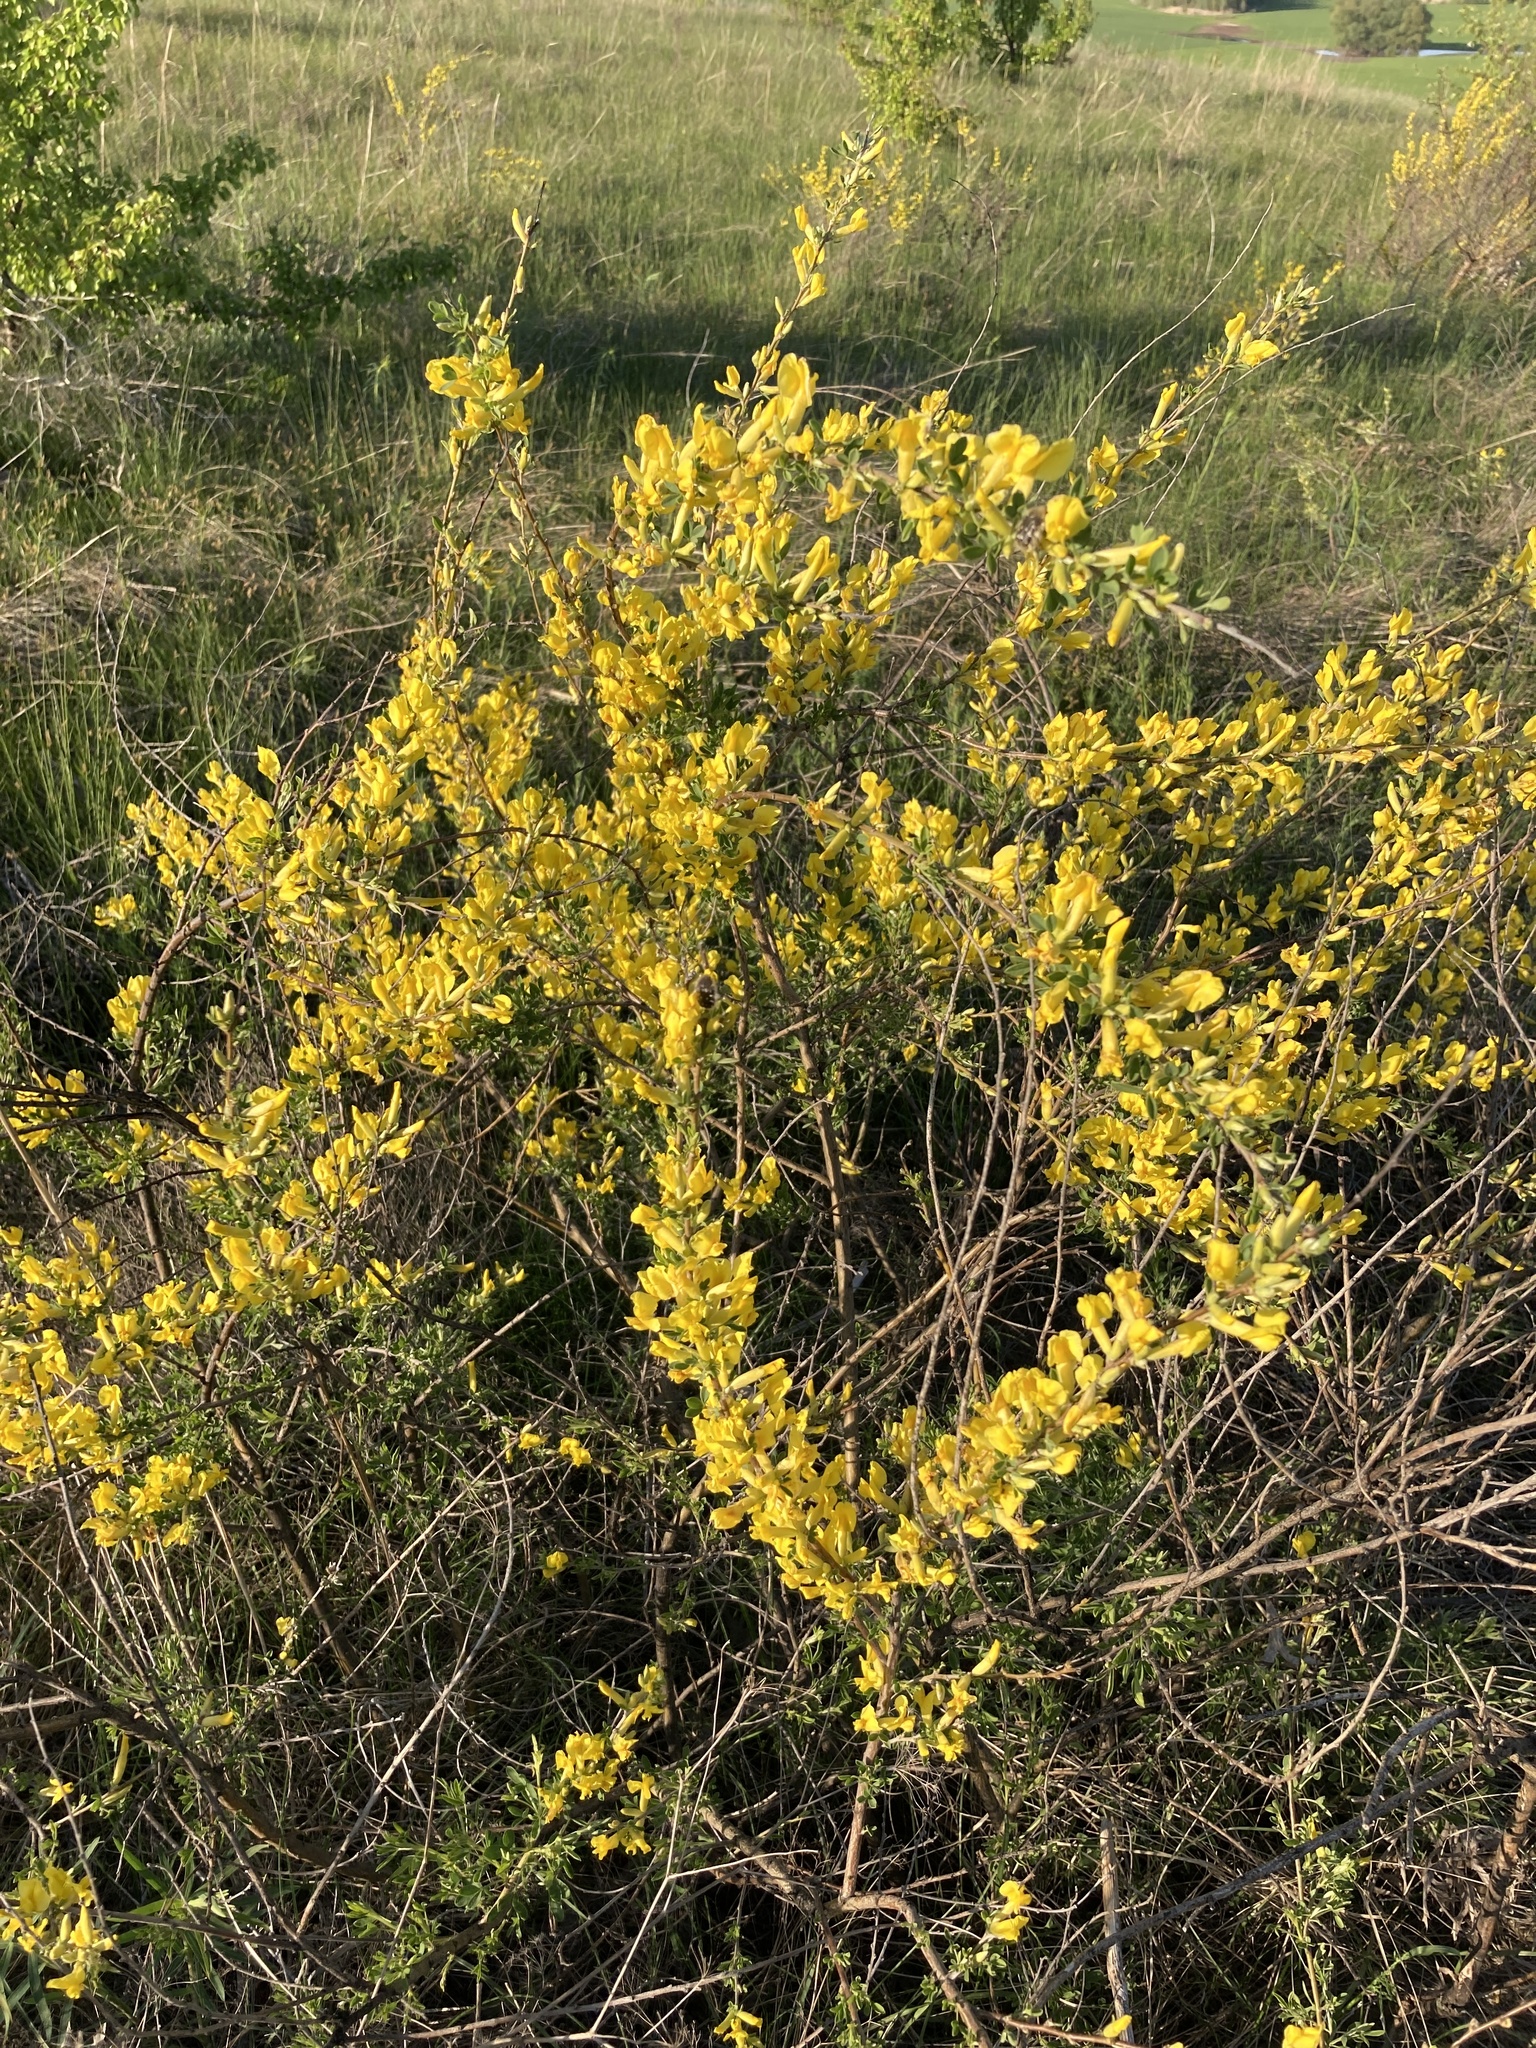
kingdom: Plantae
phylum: Tracheophyta
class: Magnoliopsida
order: Fabales
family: Fabaceae
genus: Chamaecytisus
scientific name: Chamaecytisus ruthenicus
